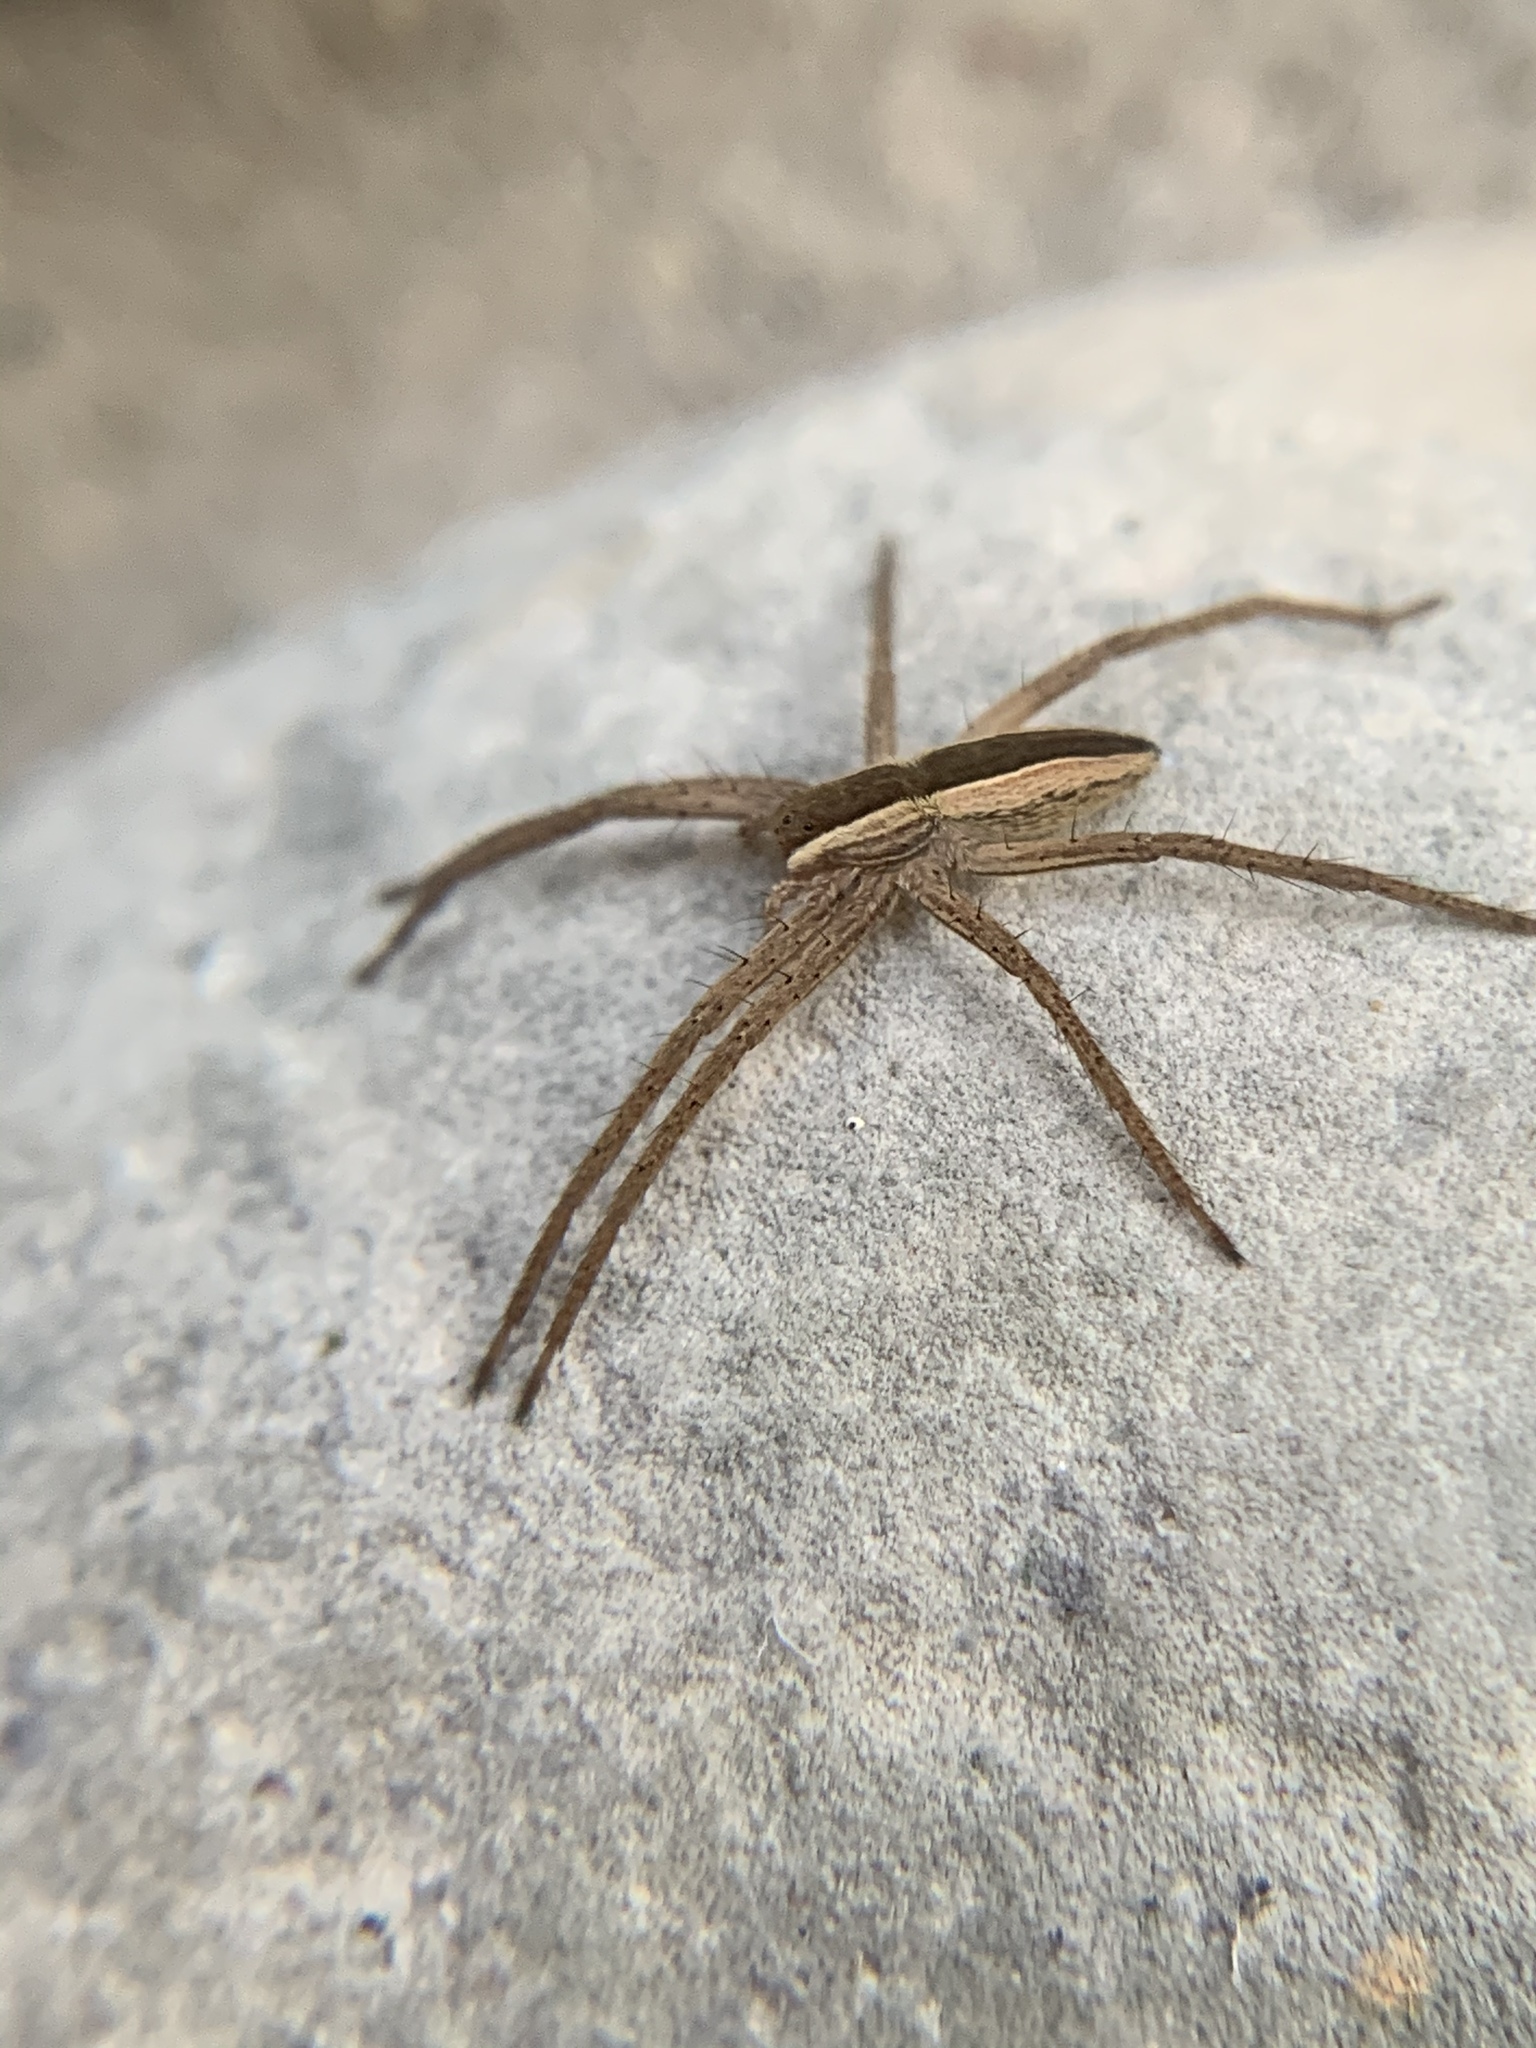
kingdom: Animalia
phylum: Arthropoda
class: Arachnida
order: Araneae
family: Pisauridae
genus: Pisaurina
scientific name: Pisaurina brevipes
